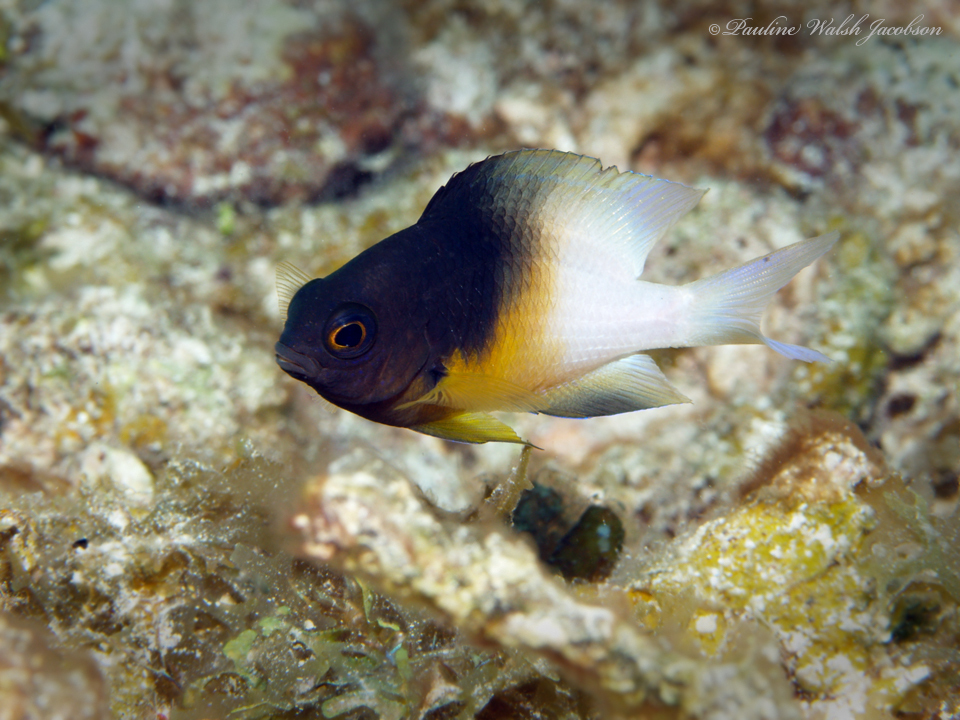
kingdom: Animalia
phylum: Chordata
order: Perciformes
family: Pomacentridae
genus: Stegastes
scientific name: Stegastes partitus
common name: Bicolor damselfish
